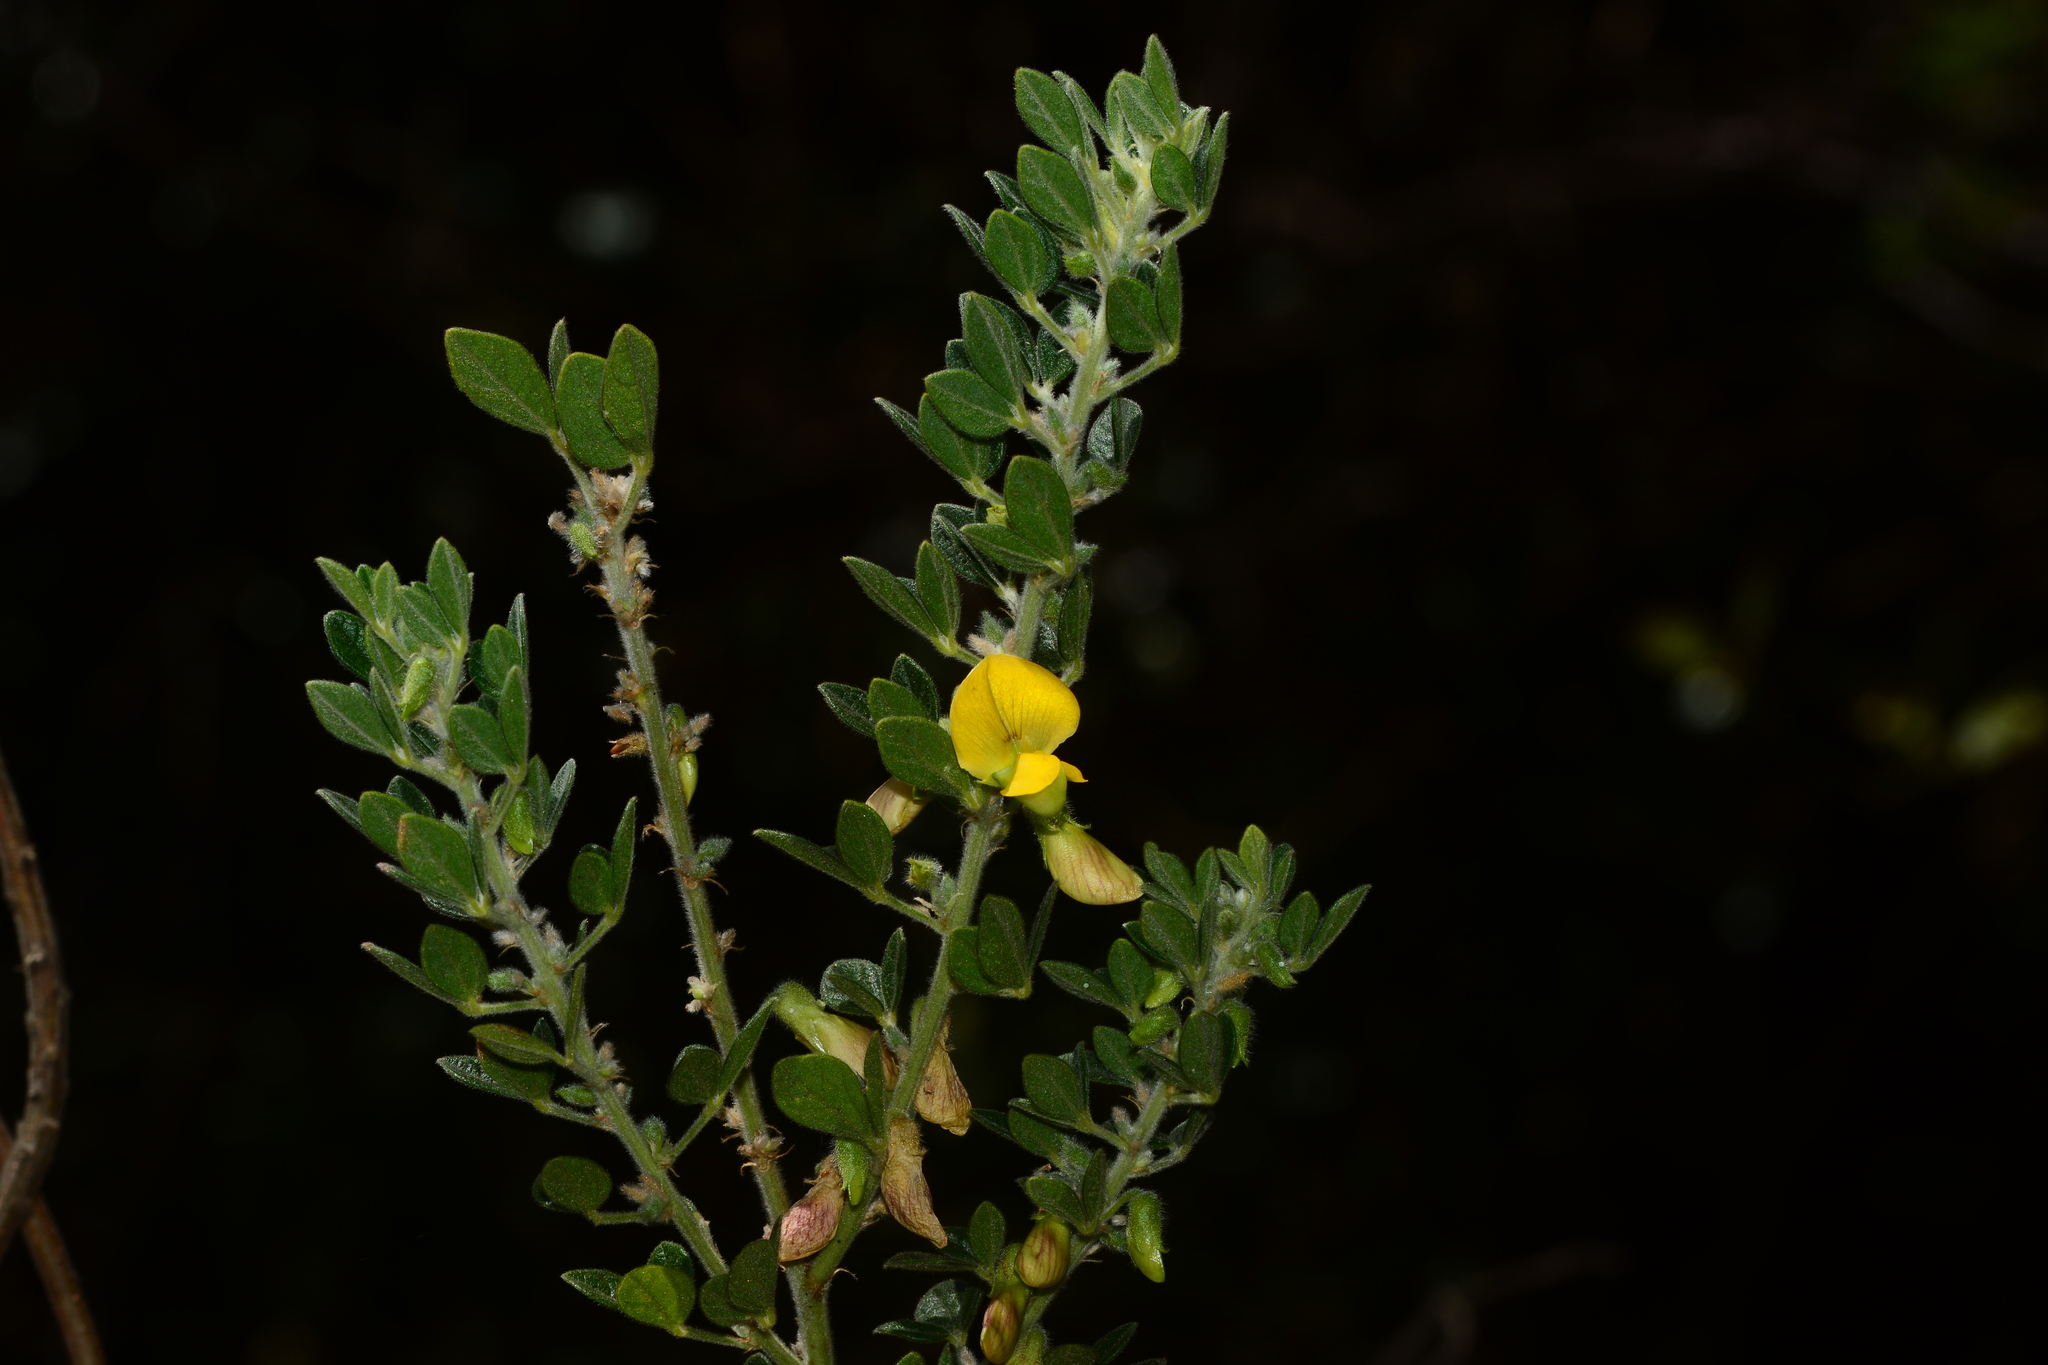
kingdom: Plantae
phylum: Tracheophyta
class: Magnoliopsida
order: Fabales
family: Fabaceae
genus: Cajanus
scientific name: Cajanus lineatus
